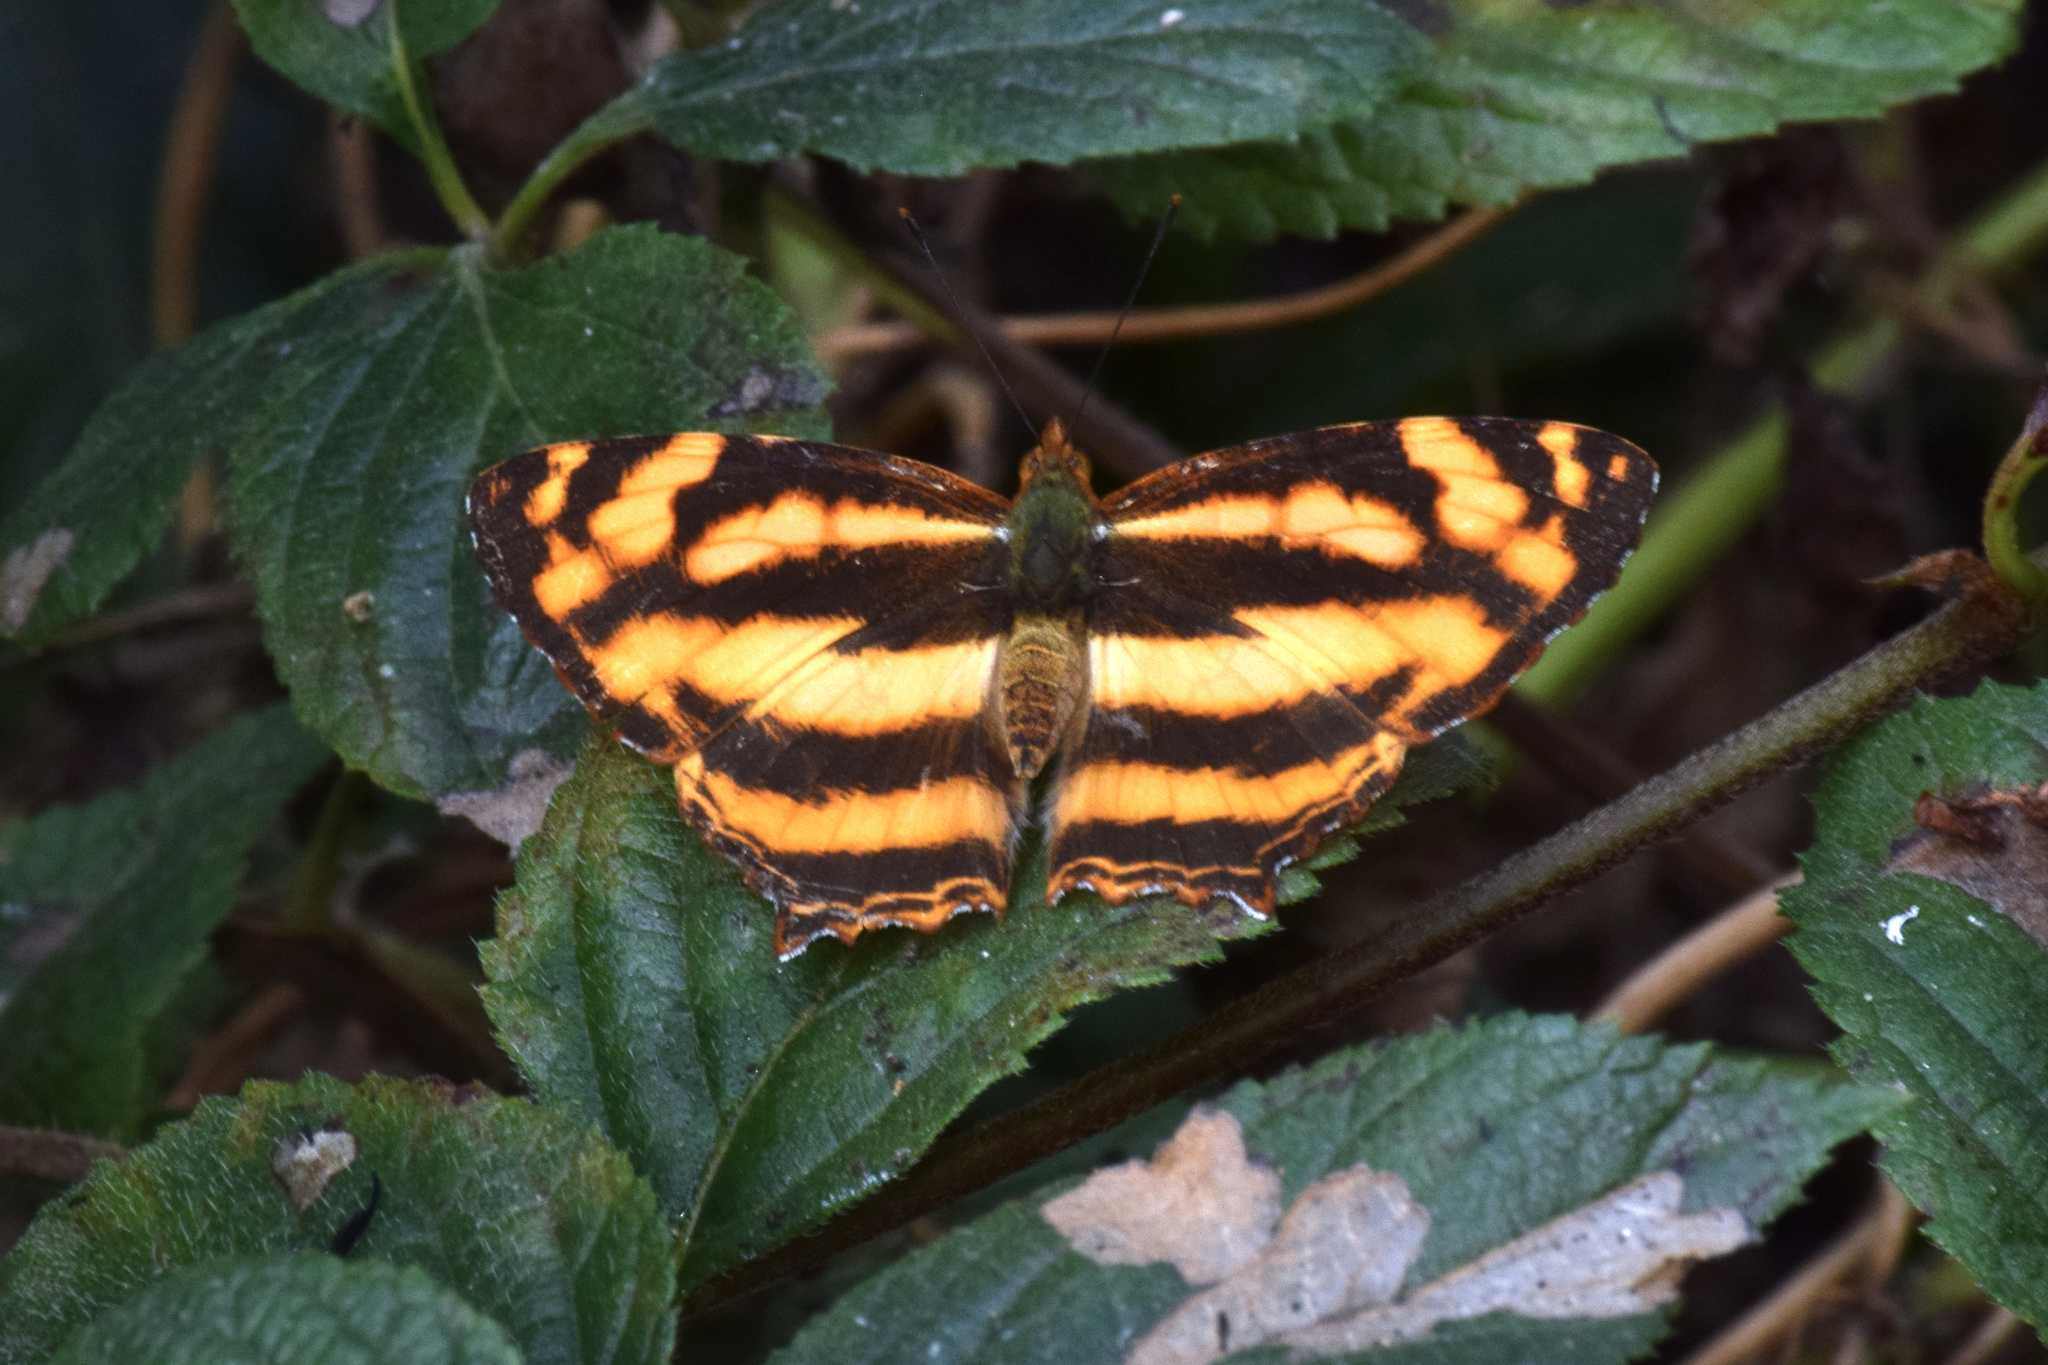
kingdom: Animalia
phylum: Arthropoda
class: Insecta
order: Lepidoptera
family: Nymphalidae
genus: Symbrenthia
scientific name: Symbrenthia hypselis
